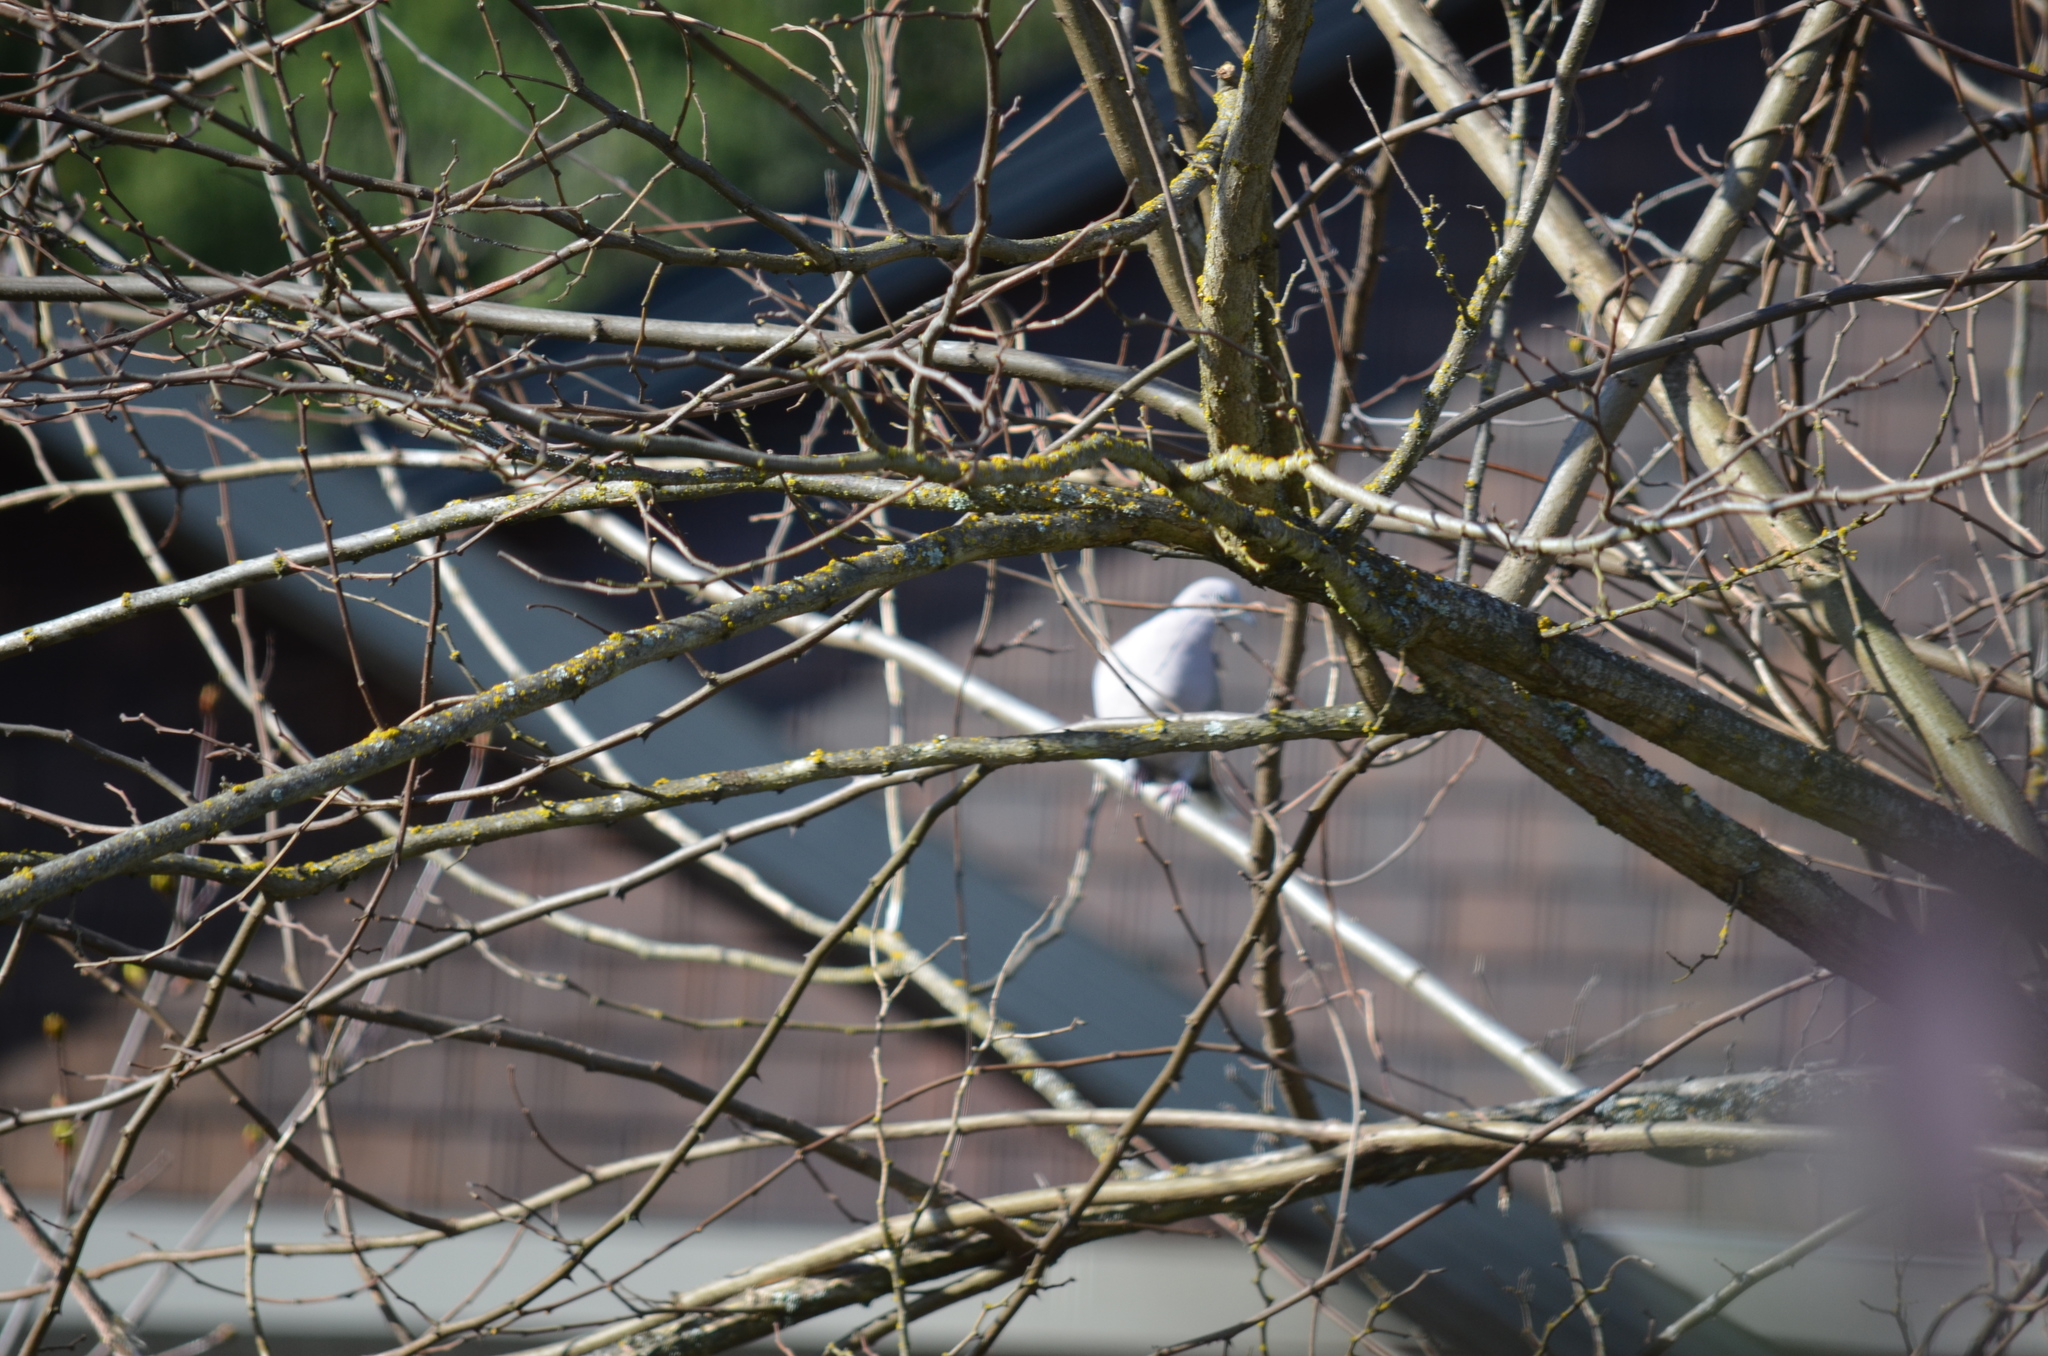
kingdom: Animalia
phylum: Chordata
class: Aves
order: Columbiformes
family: Columbidae
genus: Streptopelia
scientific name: Streptopelia decaocto
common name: Eurasian collared dove
